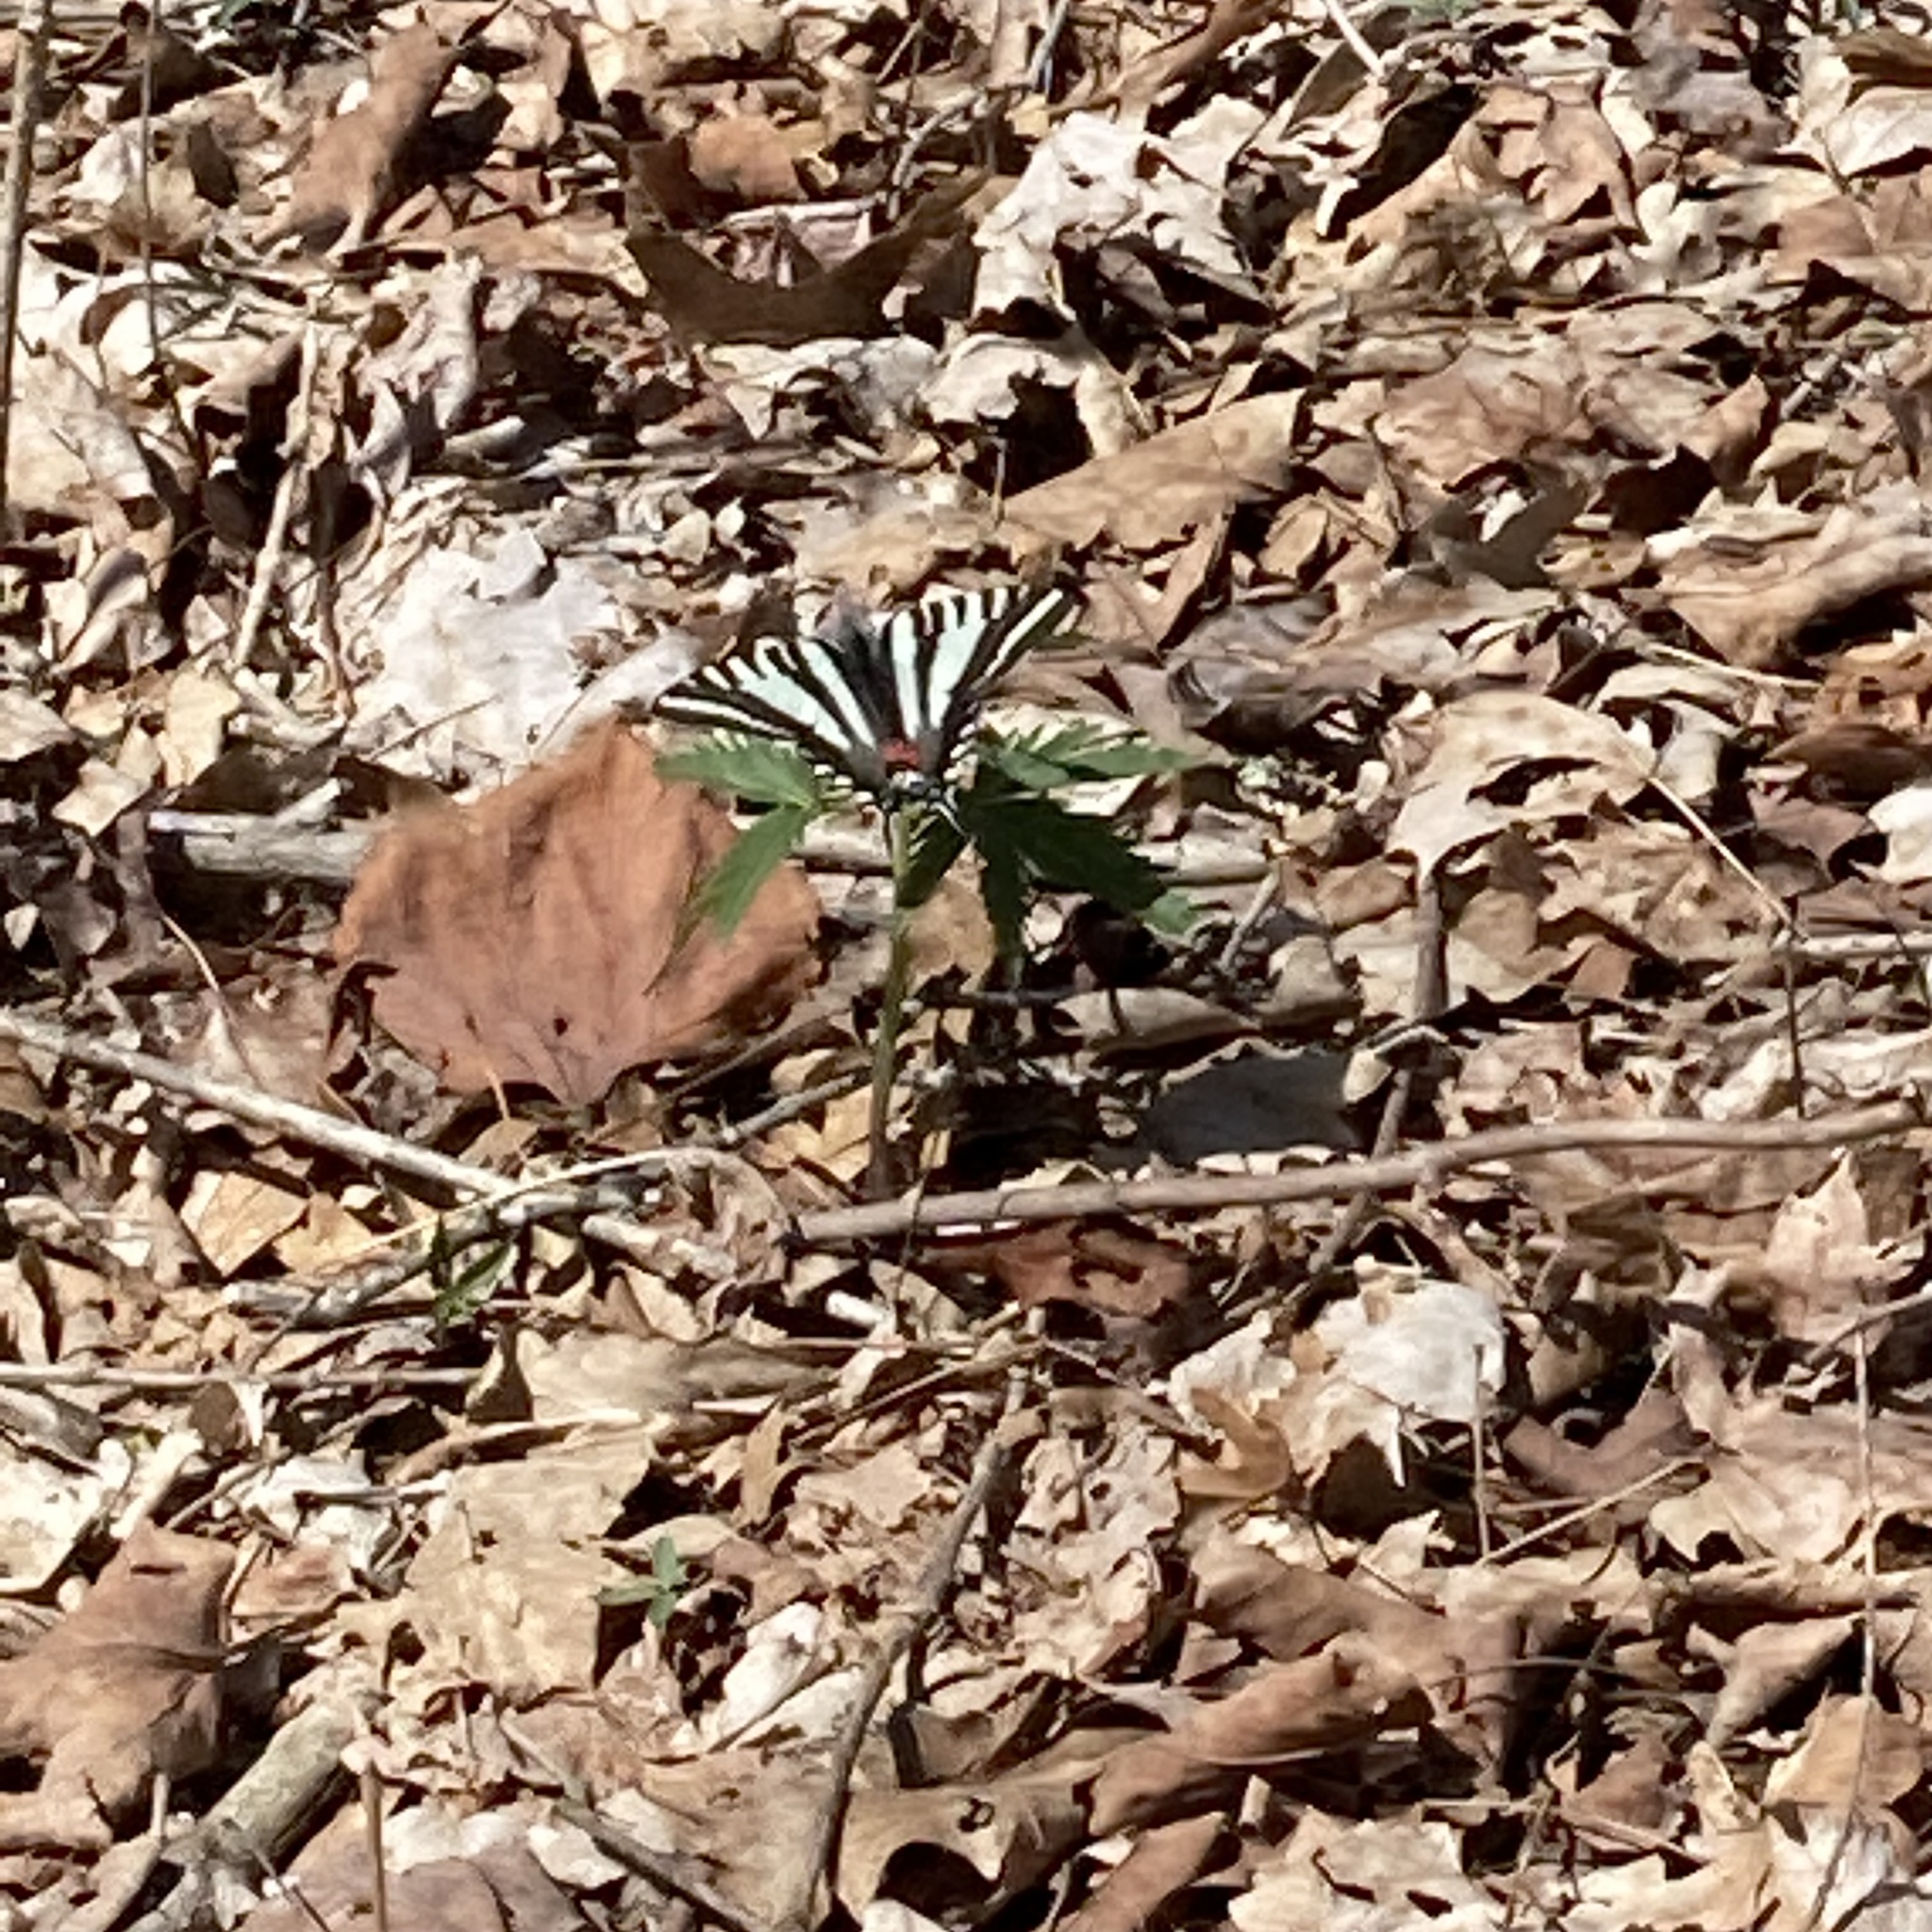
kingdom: Animalia
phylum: Arthropoda
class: Insecta
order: Lepidoptera
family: Papilionidae
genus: Protographium
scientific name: Protographium marcellus
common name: Zebra swallowtail
